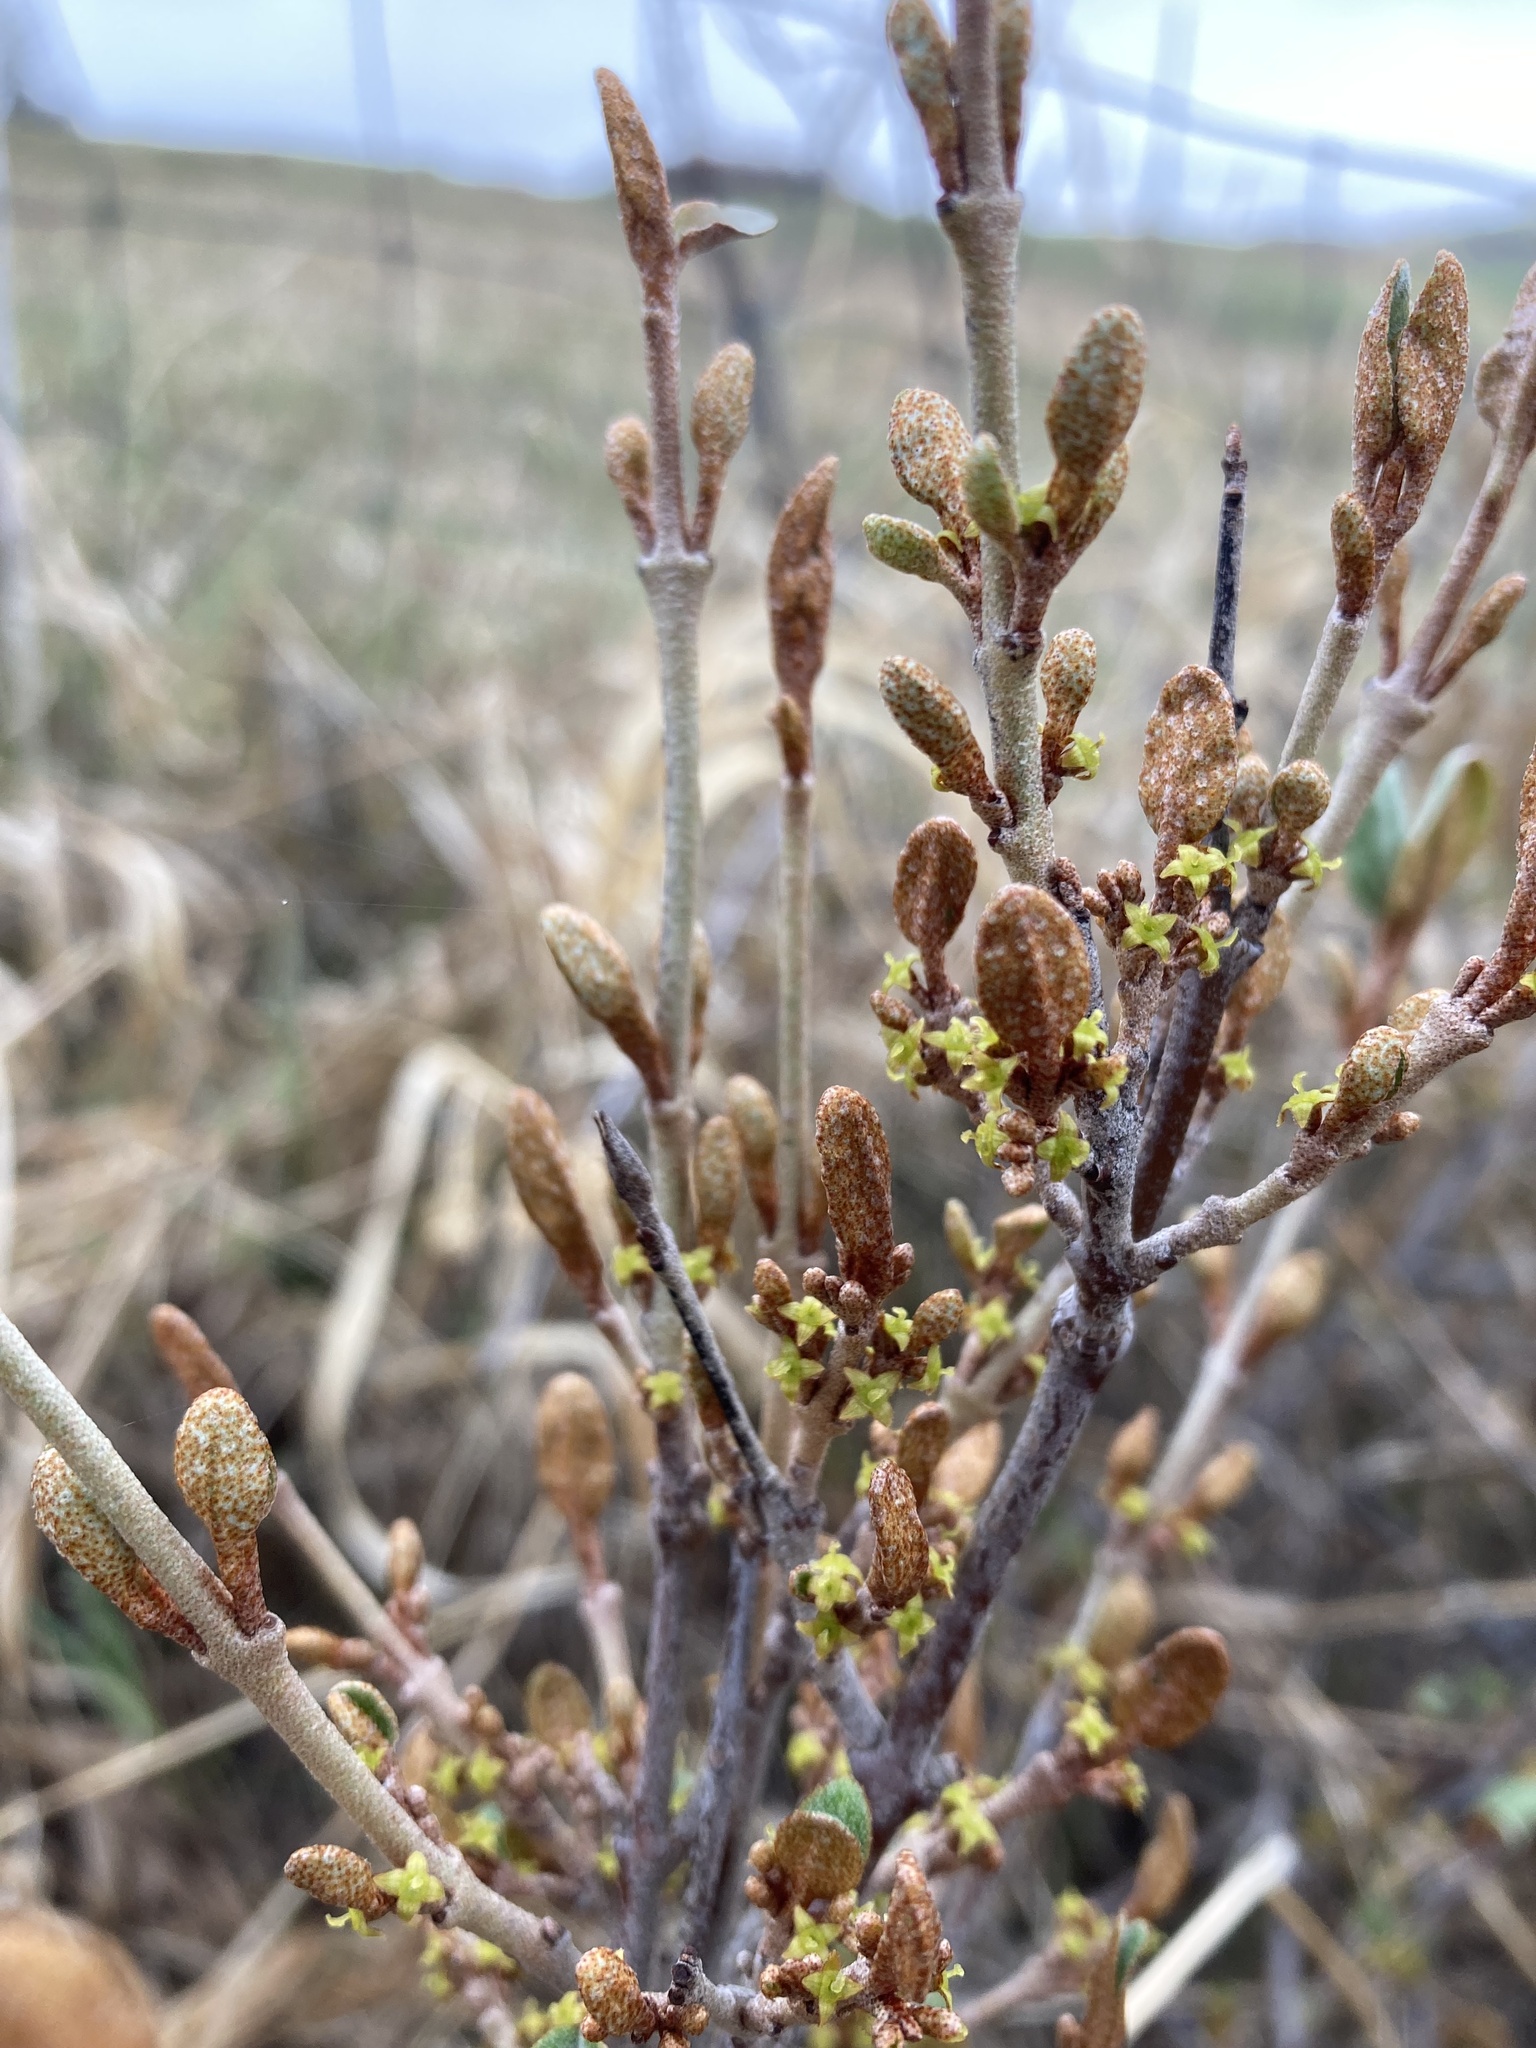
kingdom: Plantae
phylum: Tracheophyta
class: Magnoliopsida
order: Rosales
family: Elaeagnaceae
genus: Shepherdia
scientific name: Shepherdia canadensis
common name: Soapberry
